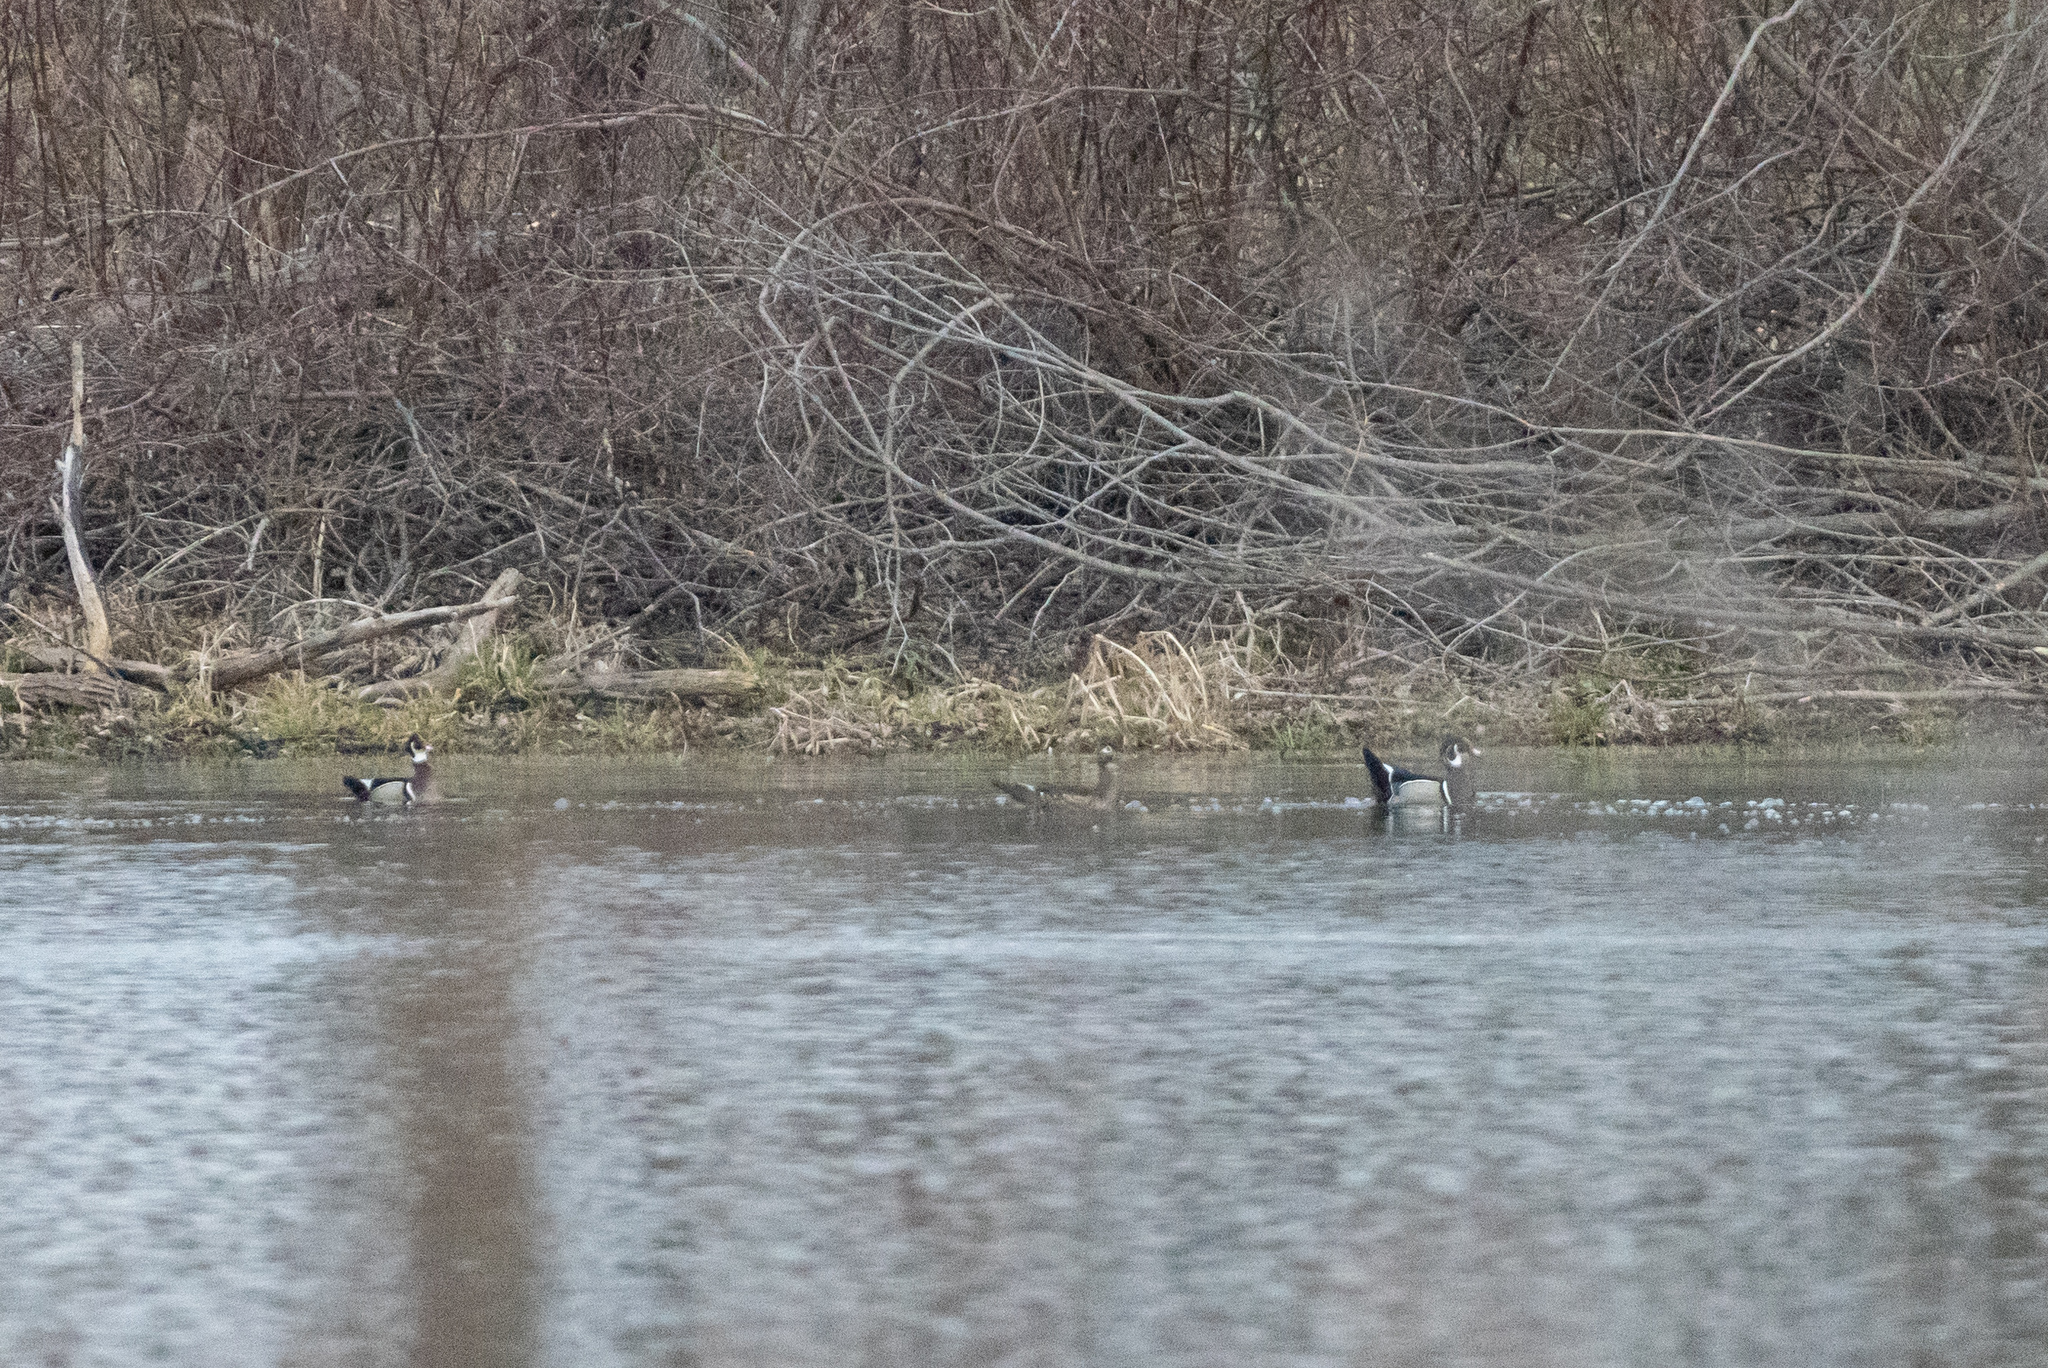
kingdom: Animalia
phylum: Chordata
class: Aves
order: Anseriformes
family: Anatidae
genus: Aix
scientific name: Aix sponsa
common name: Wood duck
